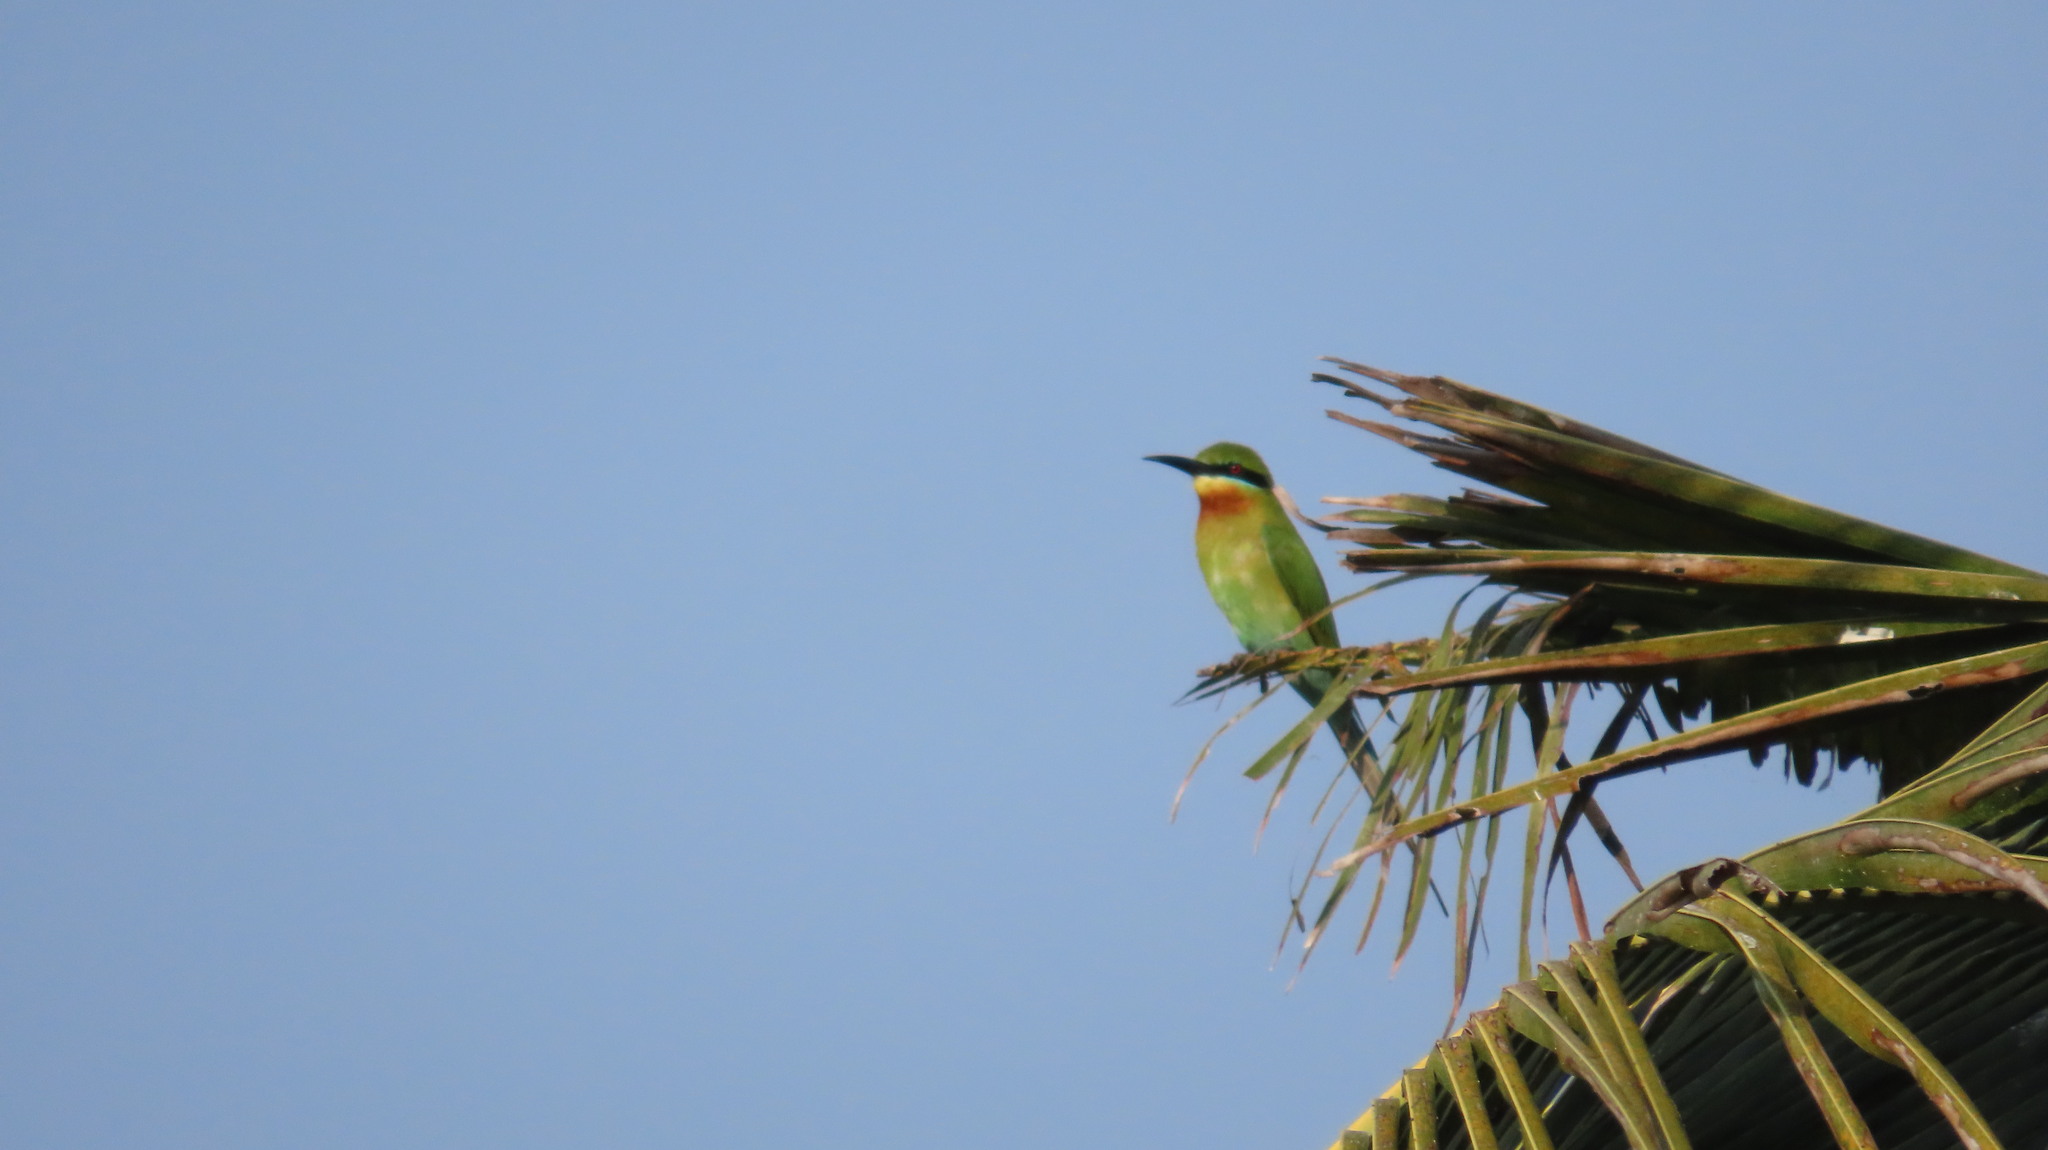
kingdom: Animalia
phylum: Chordata
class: Aves
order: Coraciiformes
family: Meropidae
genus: Merops
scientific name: Merops philippinus
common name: Blue-tailed bee-eater
